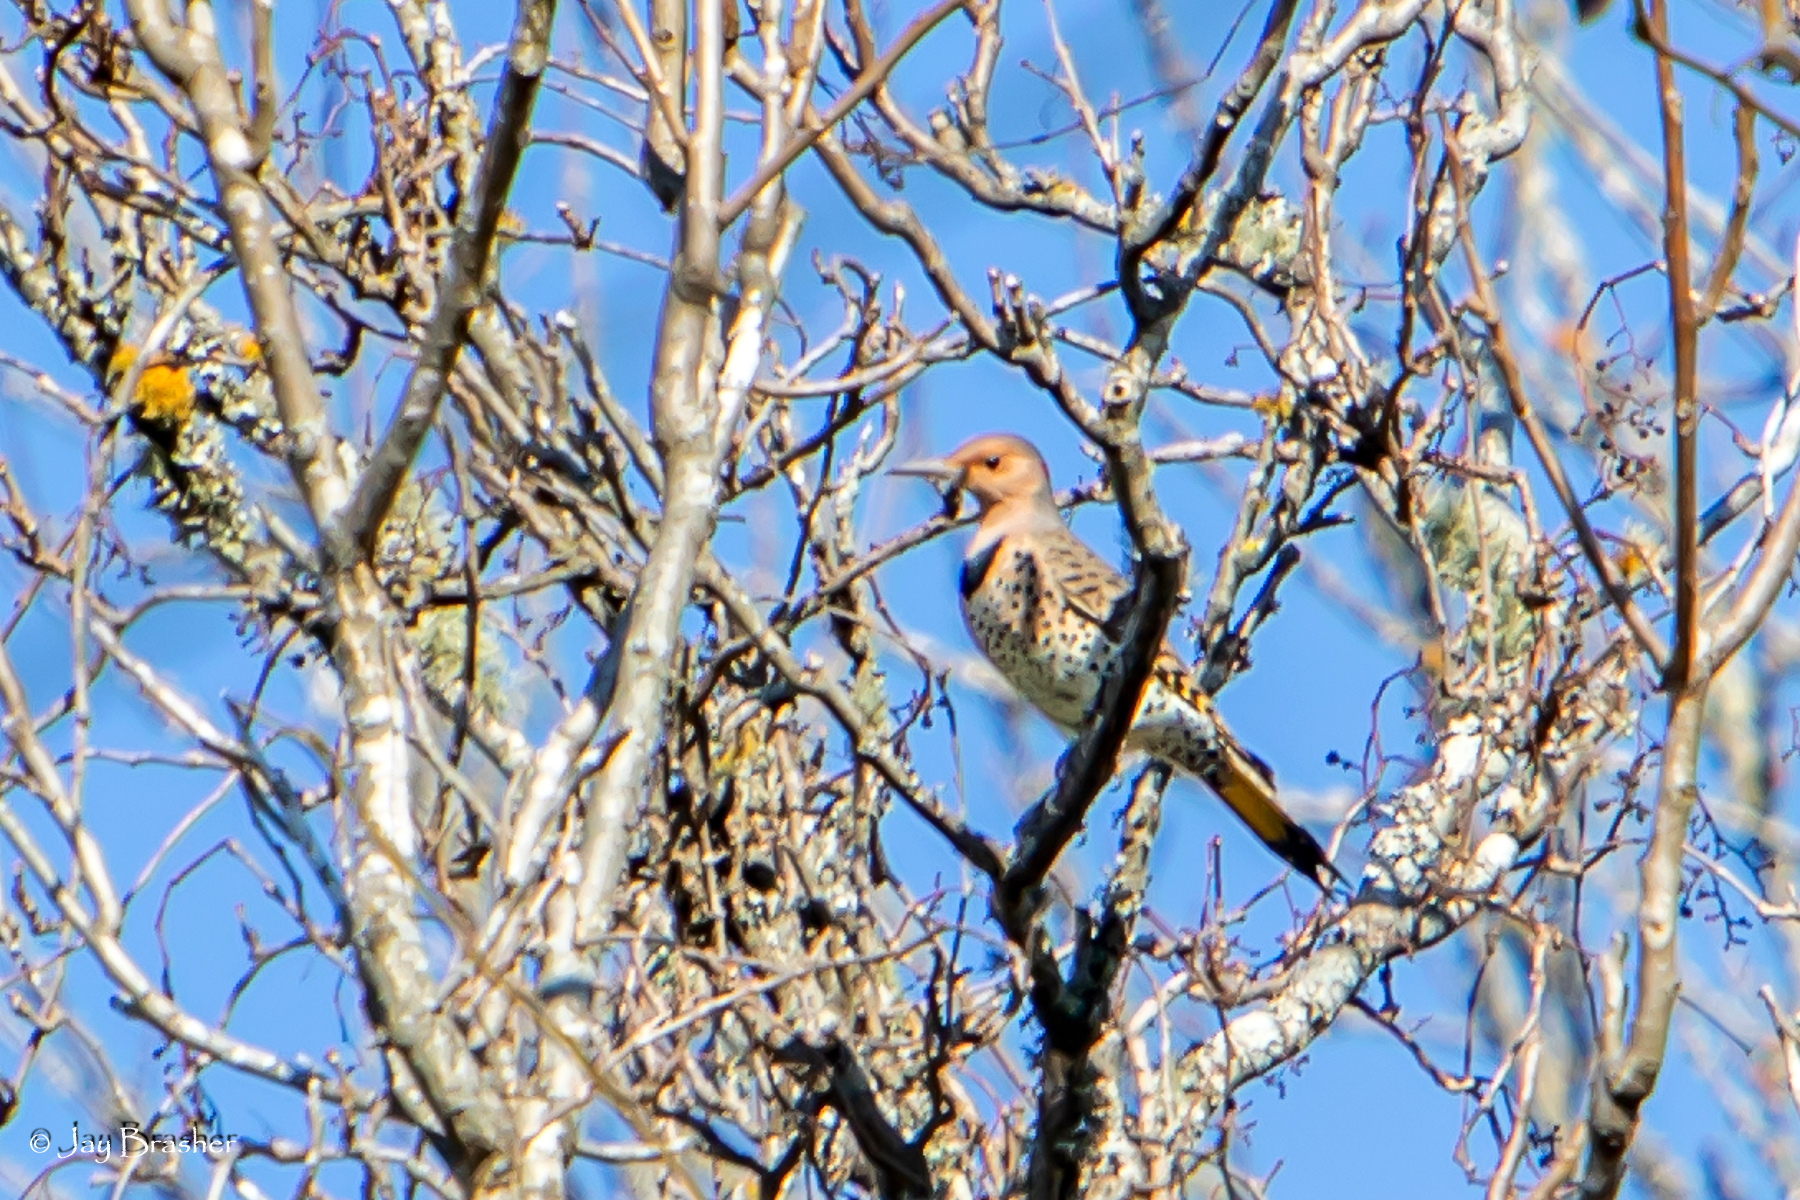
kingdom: Animalia
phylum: Chordata
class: Aves
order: Piciformes
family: Picidae
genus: Colaptes
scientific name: Colaptes auratus
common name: Northern flicker
